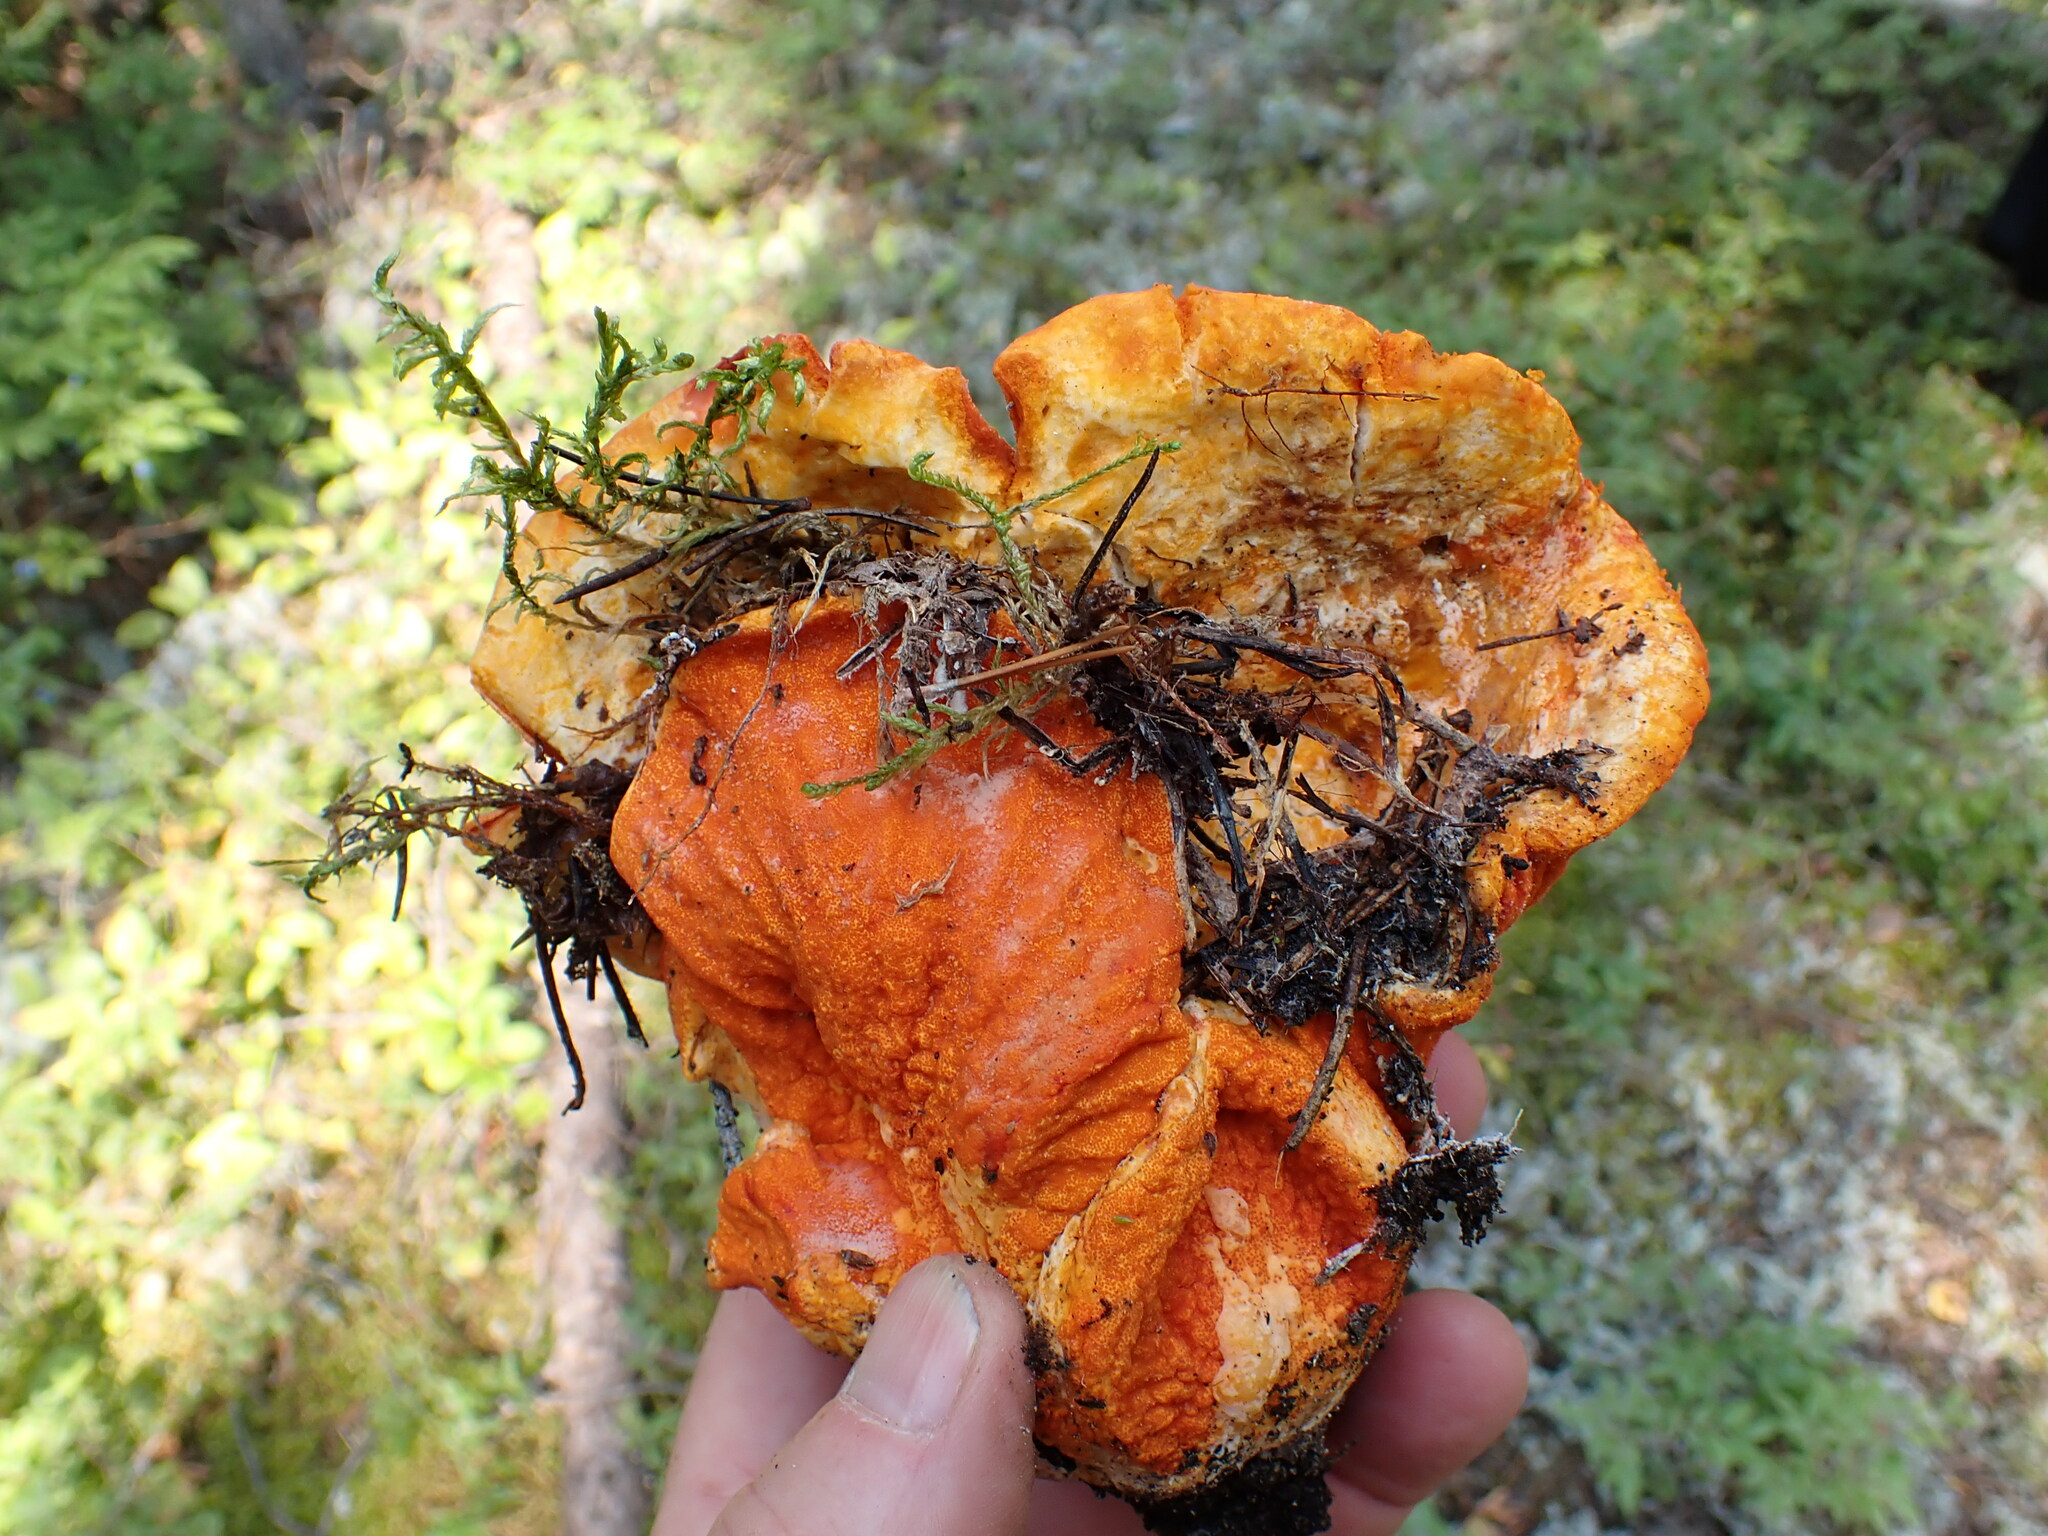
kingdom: Fungi
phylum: Ascomycota
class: Sordariomycetes
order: Hypocreales
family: Hypocreaceae
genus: Hypomyces
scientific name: Hypomyces lactifluorum
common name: Lobster mushroom
